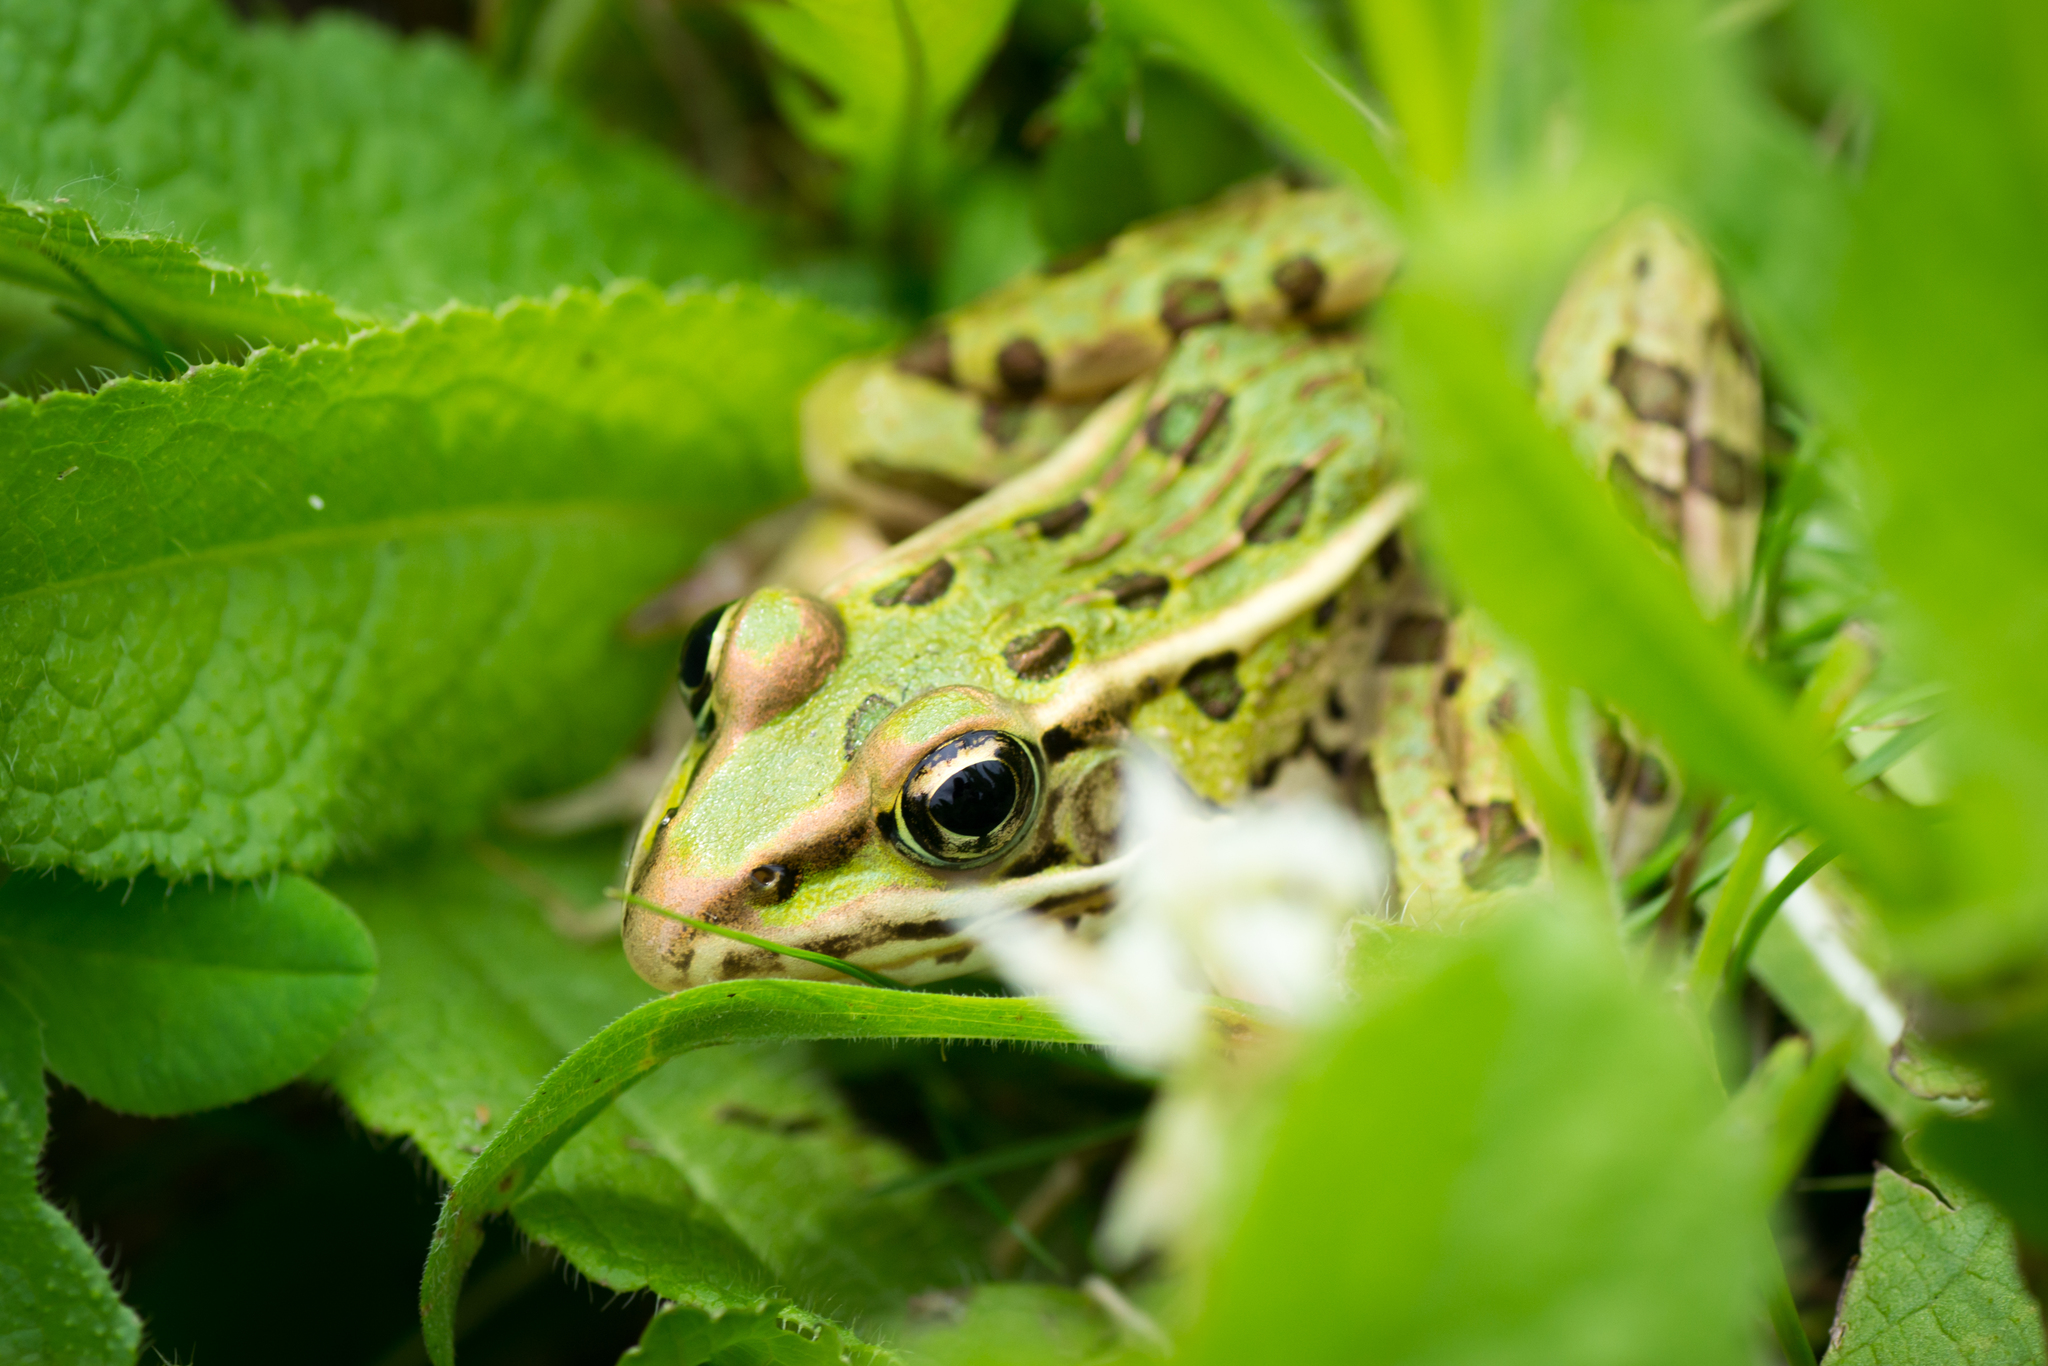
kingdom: Animalia
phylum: Chordata
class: Amphibia
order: Anura
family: Ranidae
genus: Lithobates
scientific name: Lithobates pipiens
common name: Northern leopard frog
